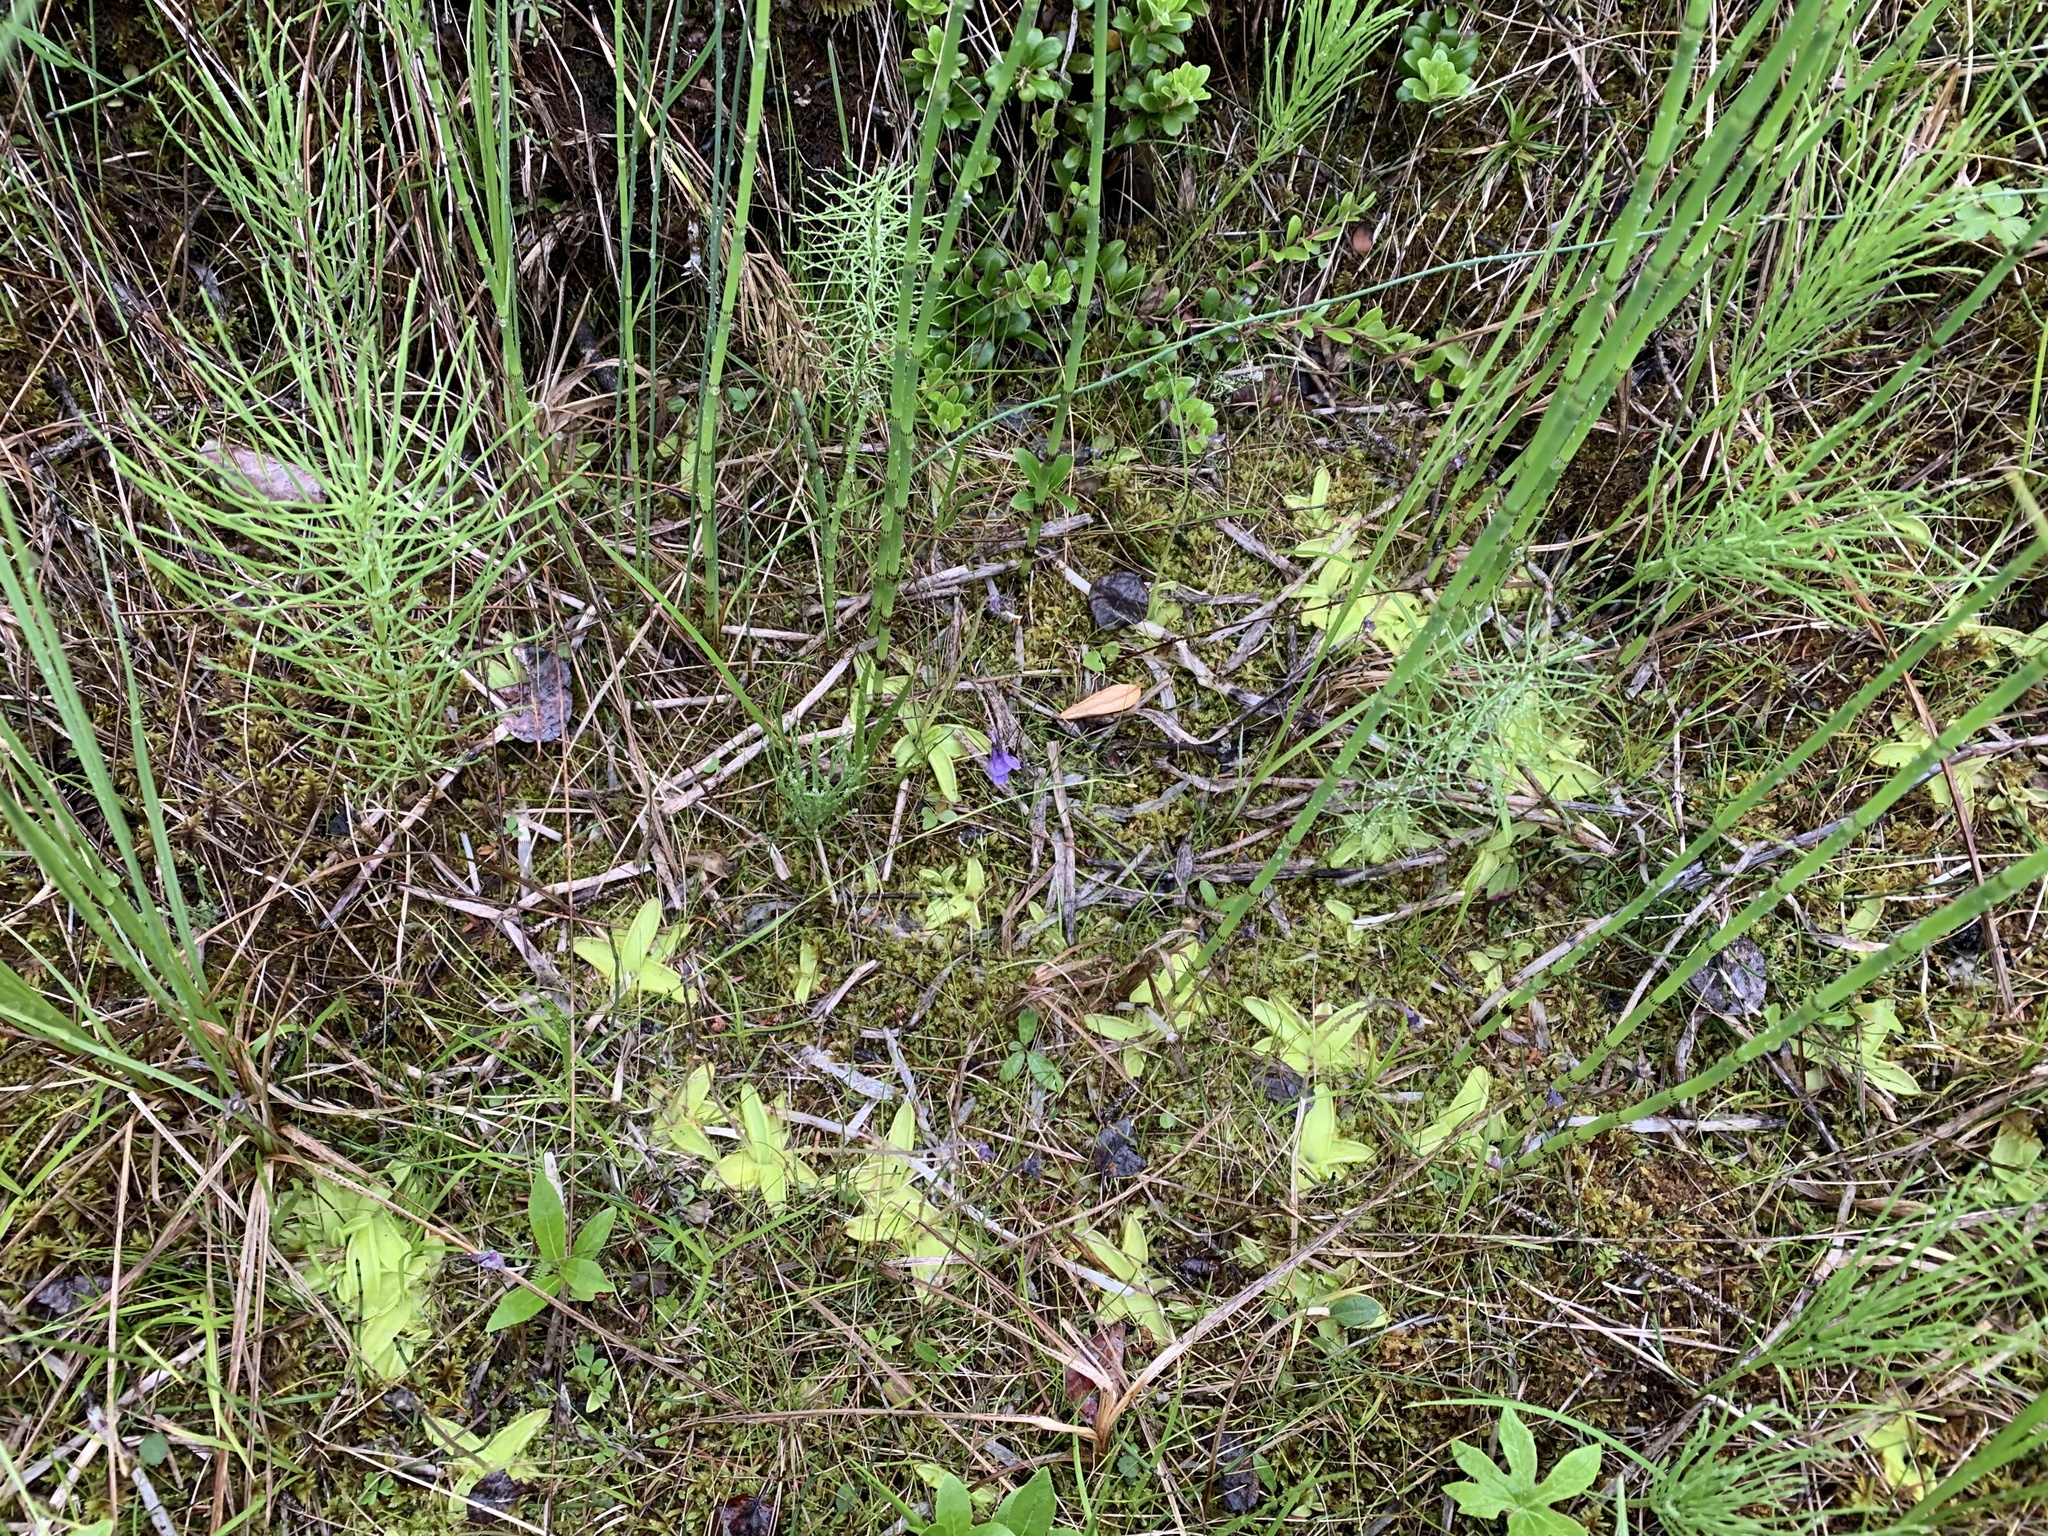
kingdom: Plantae
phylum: Tracheophyta
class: Magnoliopsida
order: Lamiales
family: Lentibulariaceae
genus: Pinguicula
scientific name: Pinguicula vulgaris
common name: Common butterwort
